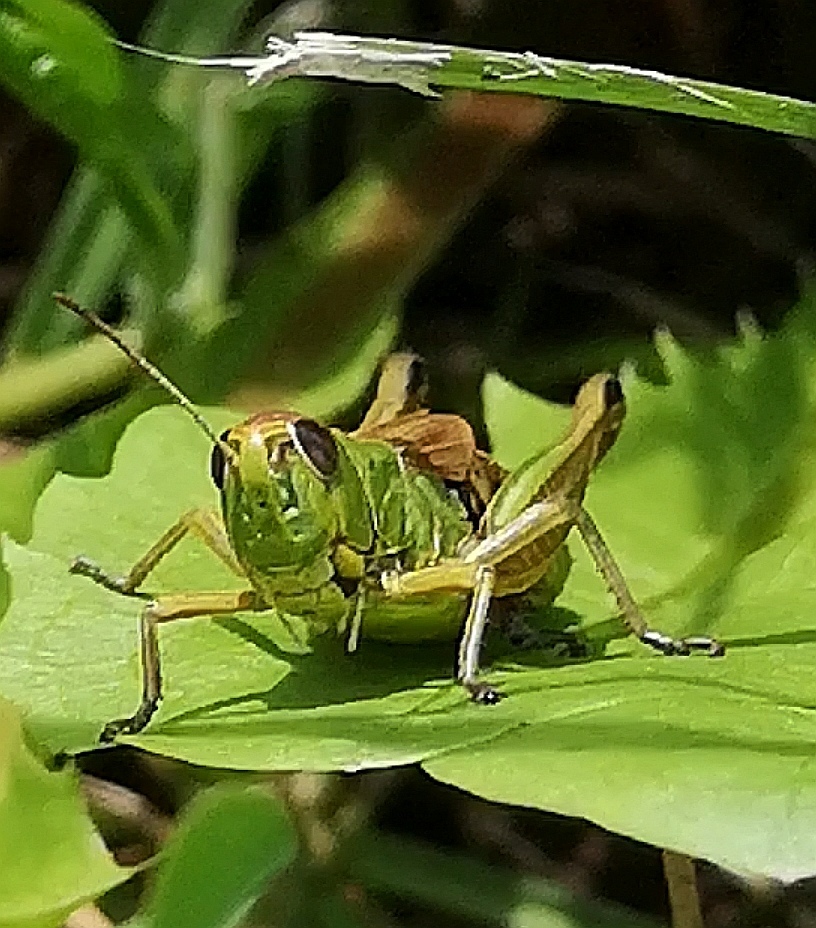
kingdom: Animalia
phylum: Arthropoda
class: Insecta
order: Orthoptera
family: Acrididae
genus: Pseudochorthippus
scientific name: Pseudochorthippus parallelus
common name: Meadow grasshopper
